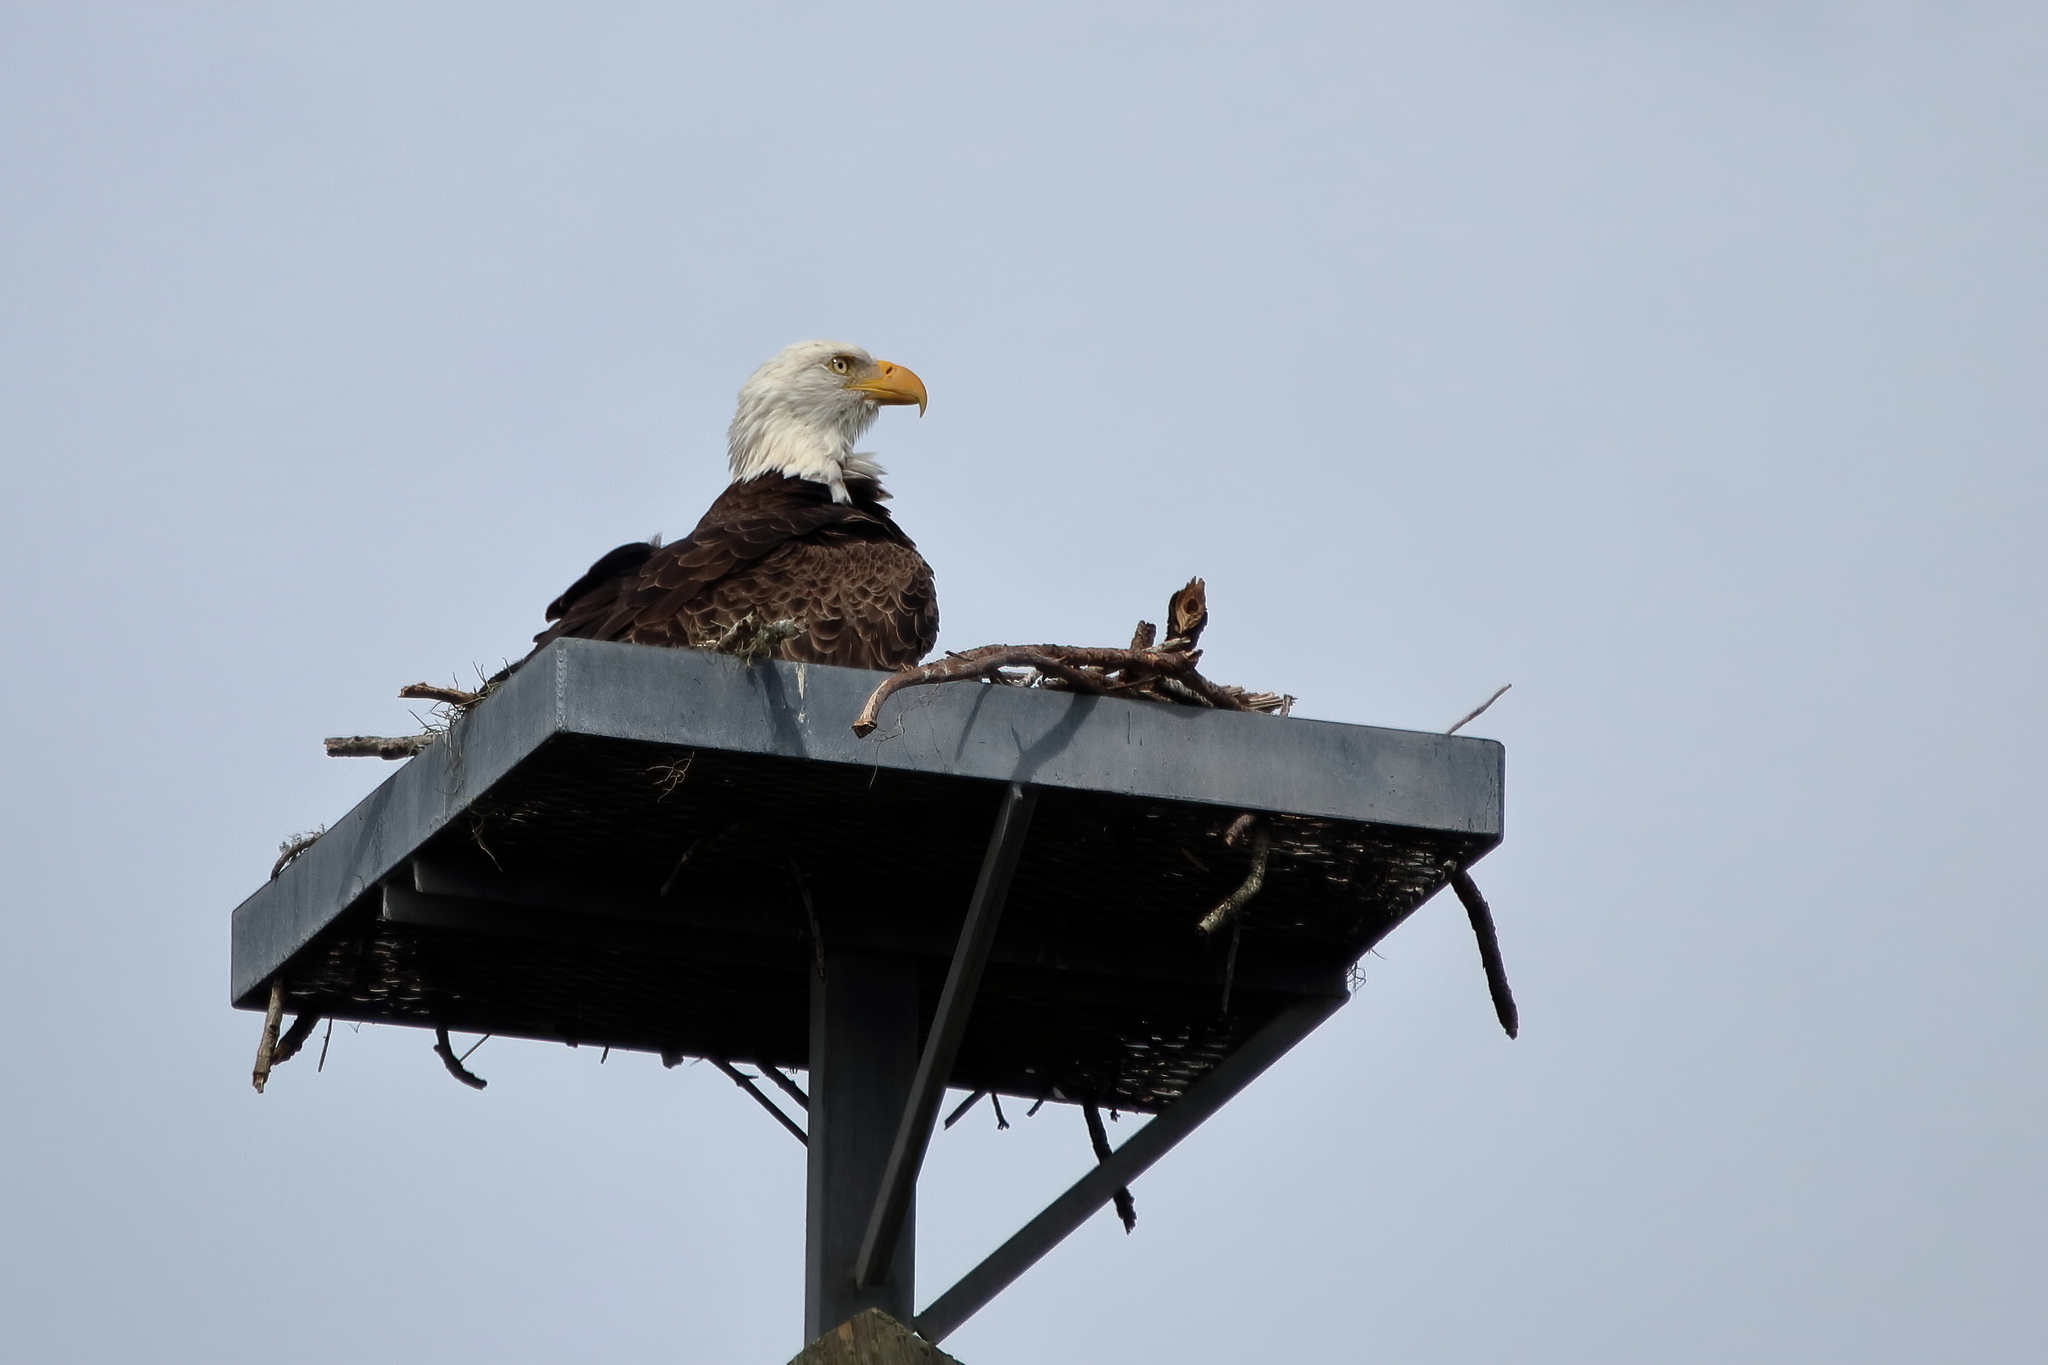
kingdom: Animalia
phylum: Chordata
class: Aves
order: Accipitriformes
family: Accipitridae
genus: Haliaeetus
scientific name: Haliaeetus leucocephalus
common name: Bald eagle
